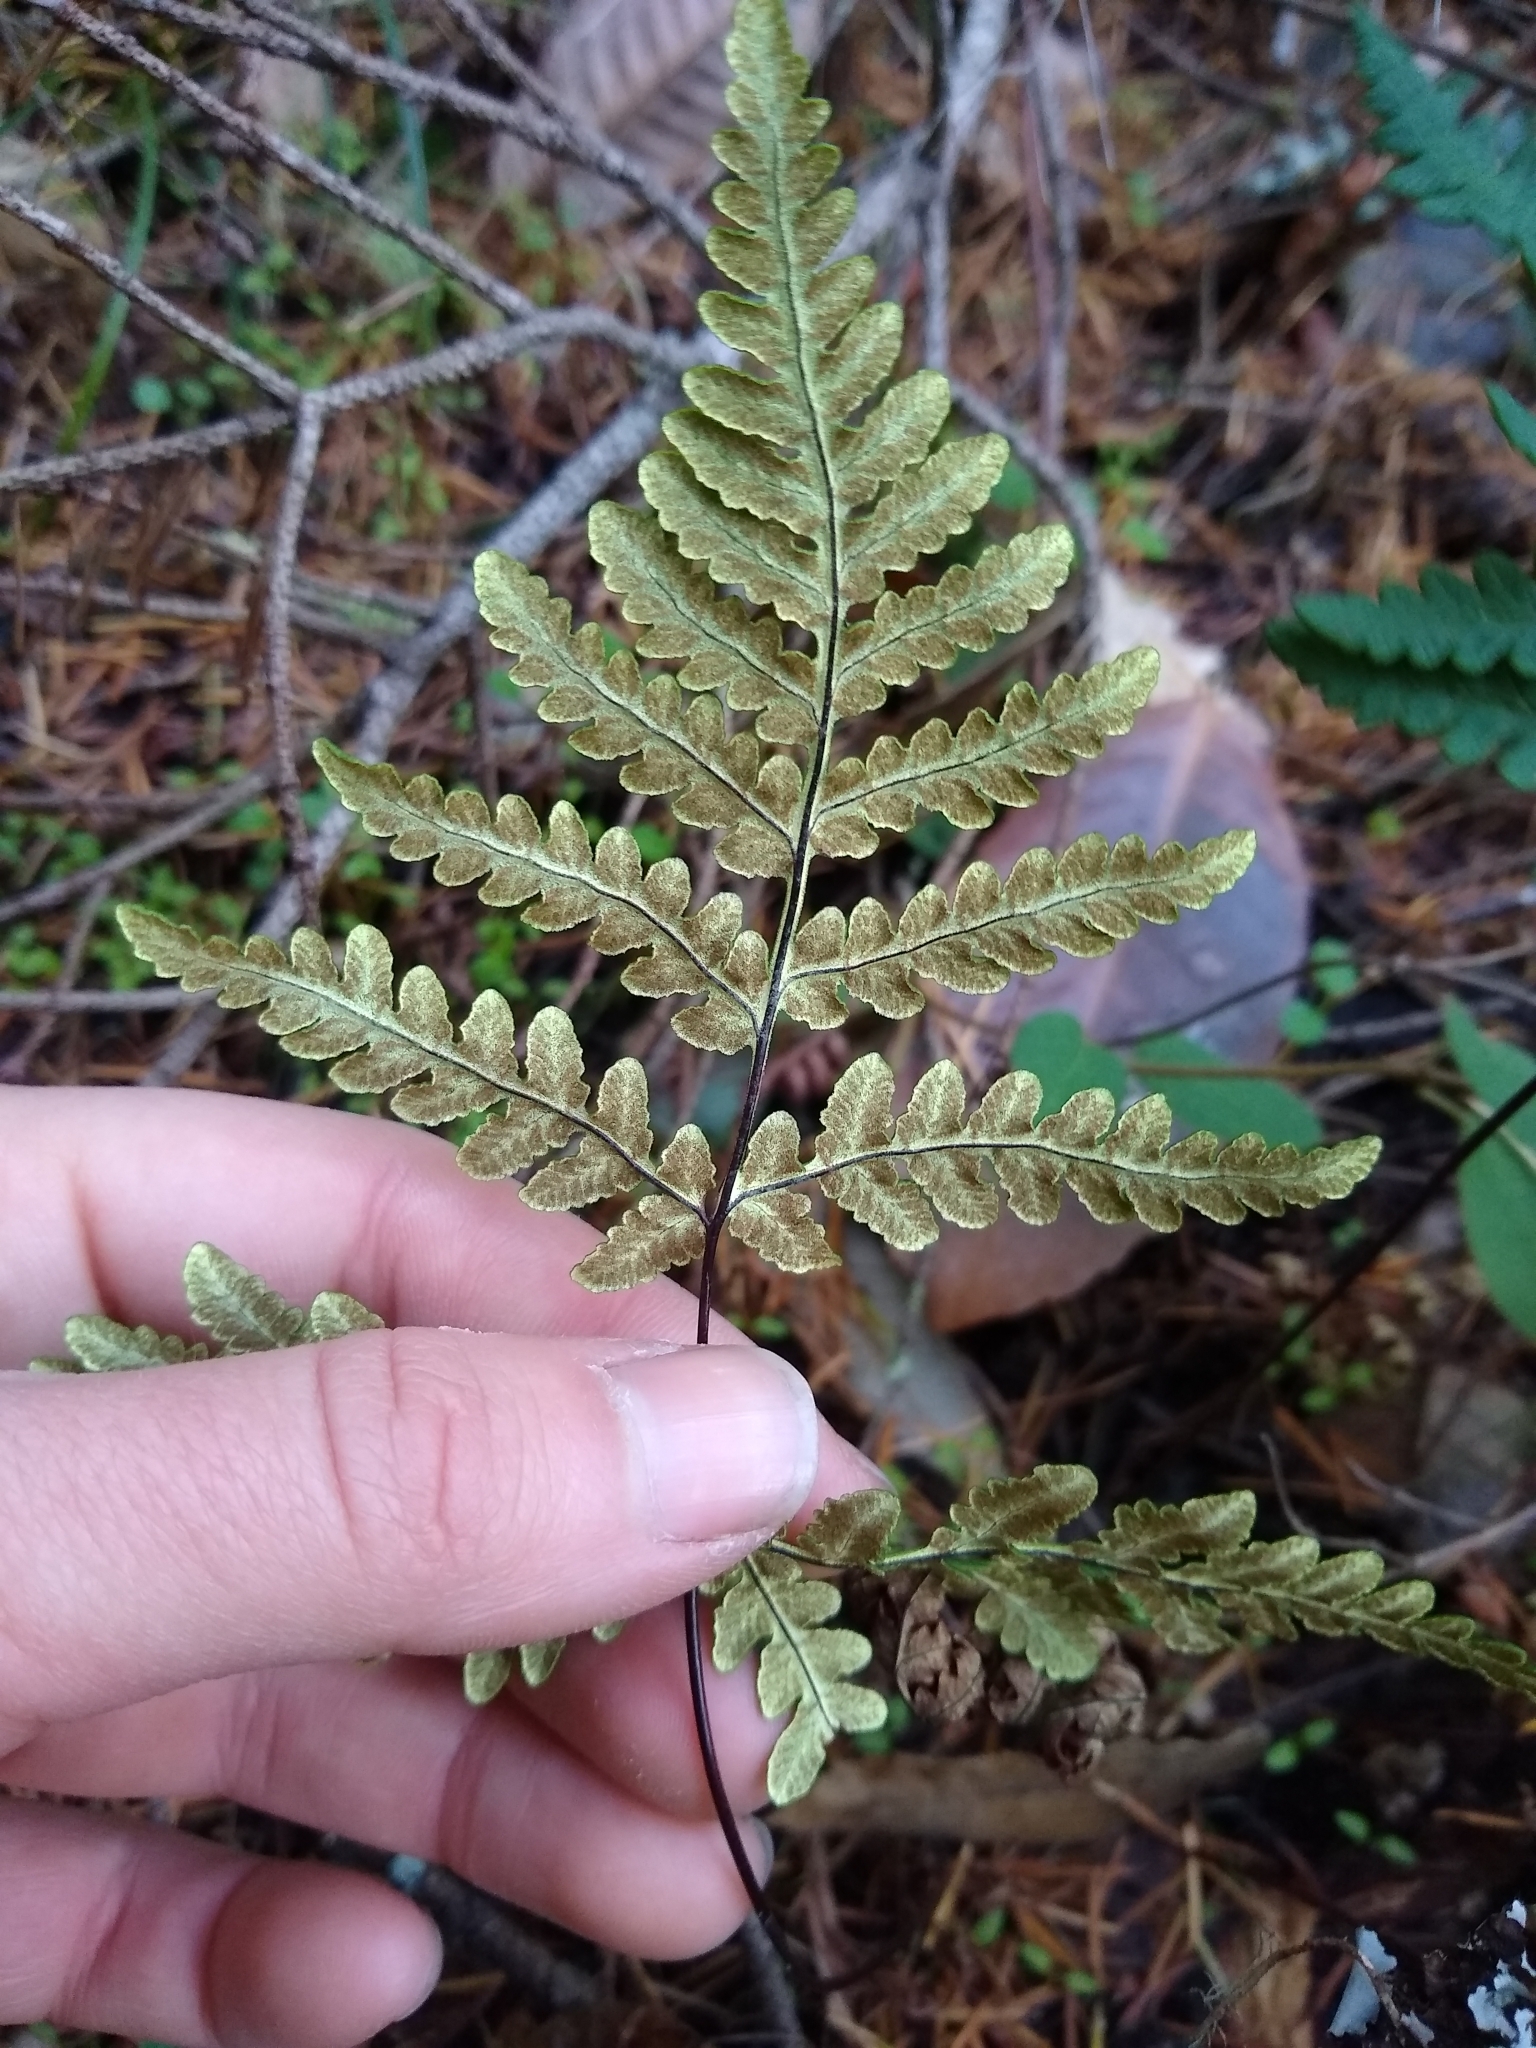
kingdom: Plantae
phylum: Tracheophyta
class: Polypodiopsida
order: Polypodiales
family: Pteridaceae
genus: Pentagramma
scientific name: Pentagramma triangularis
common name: Gold fern
